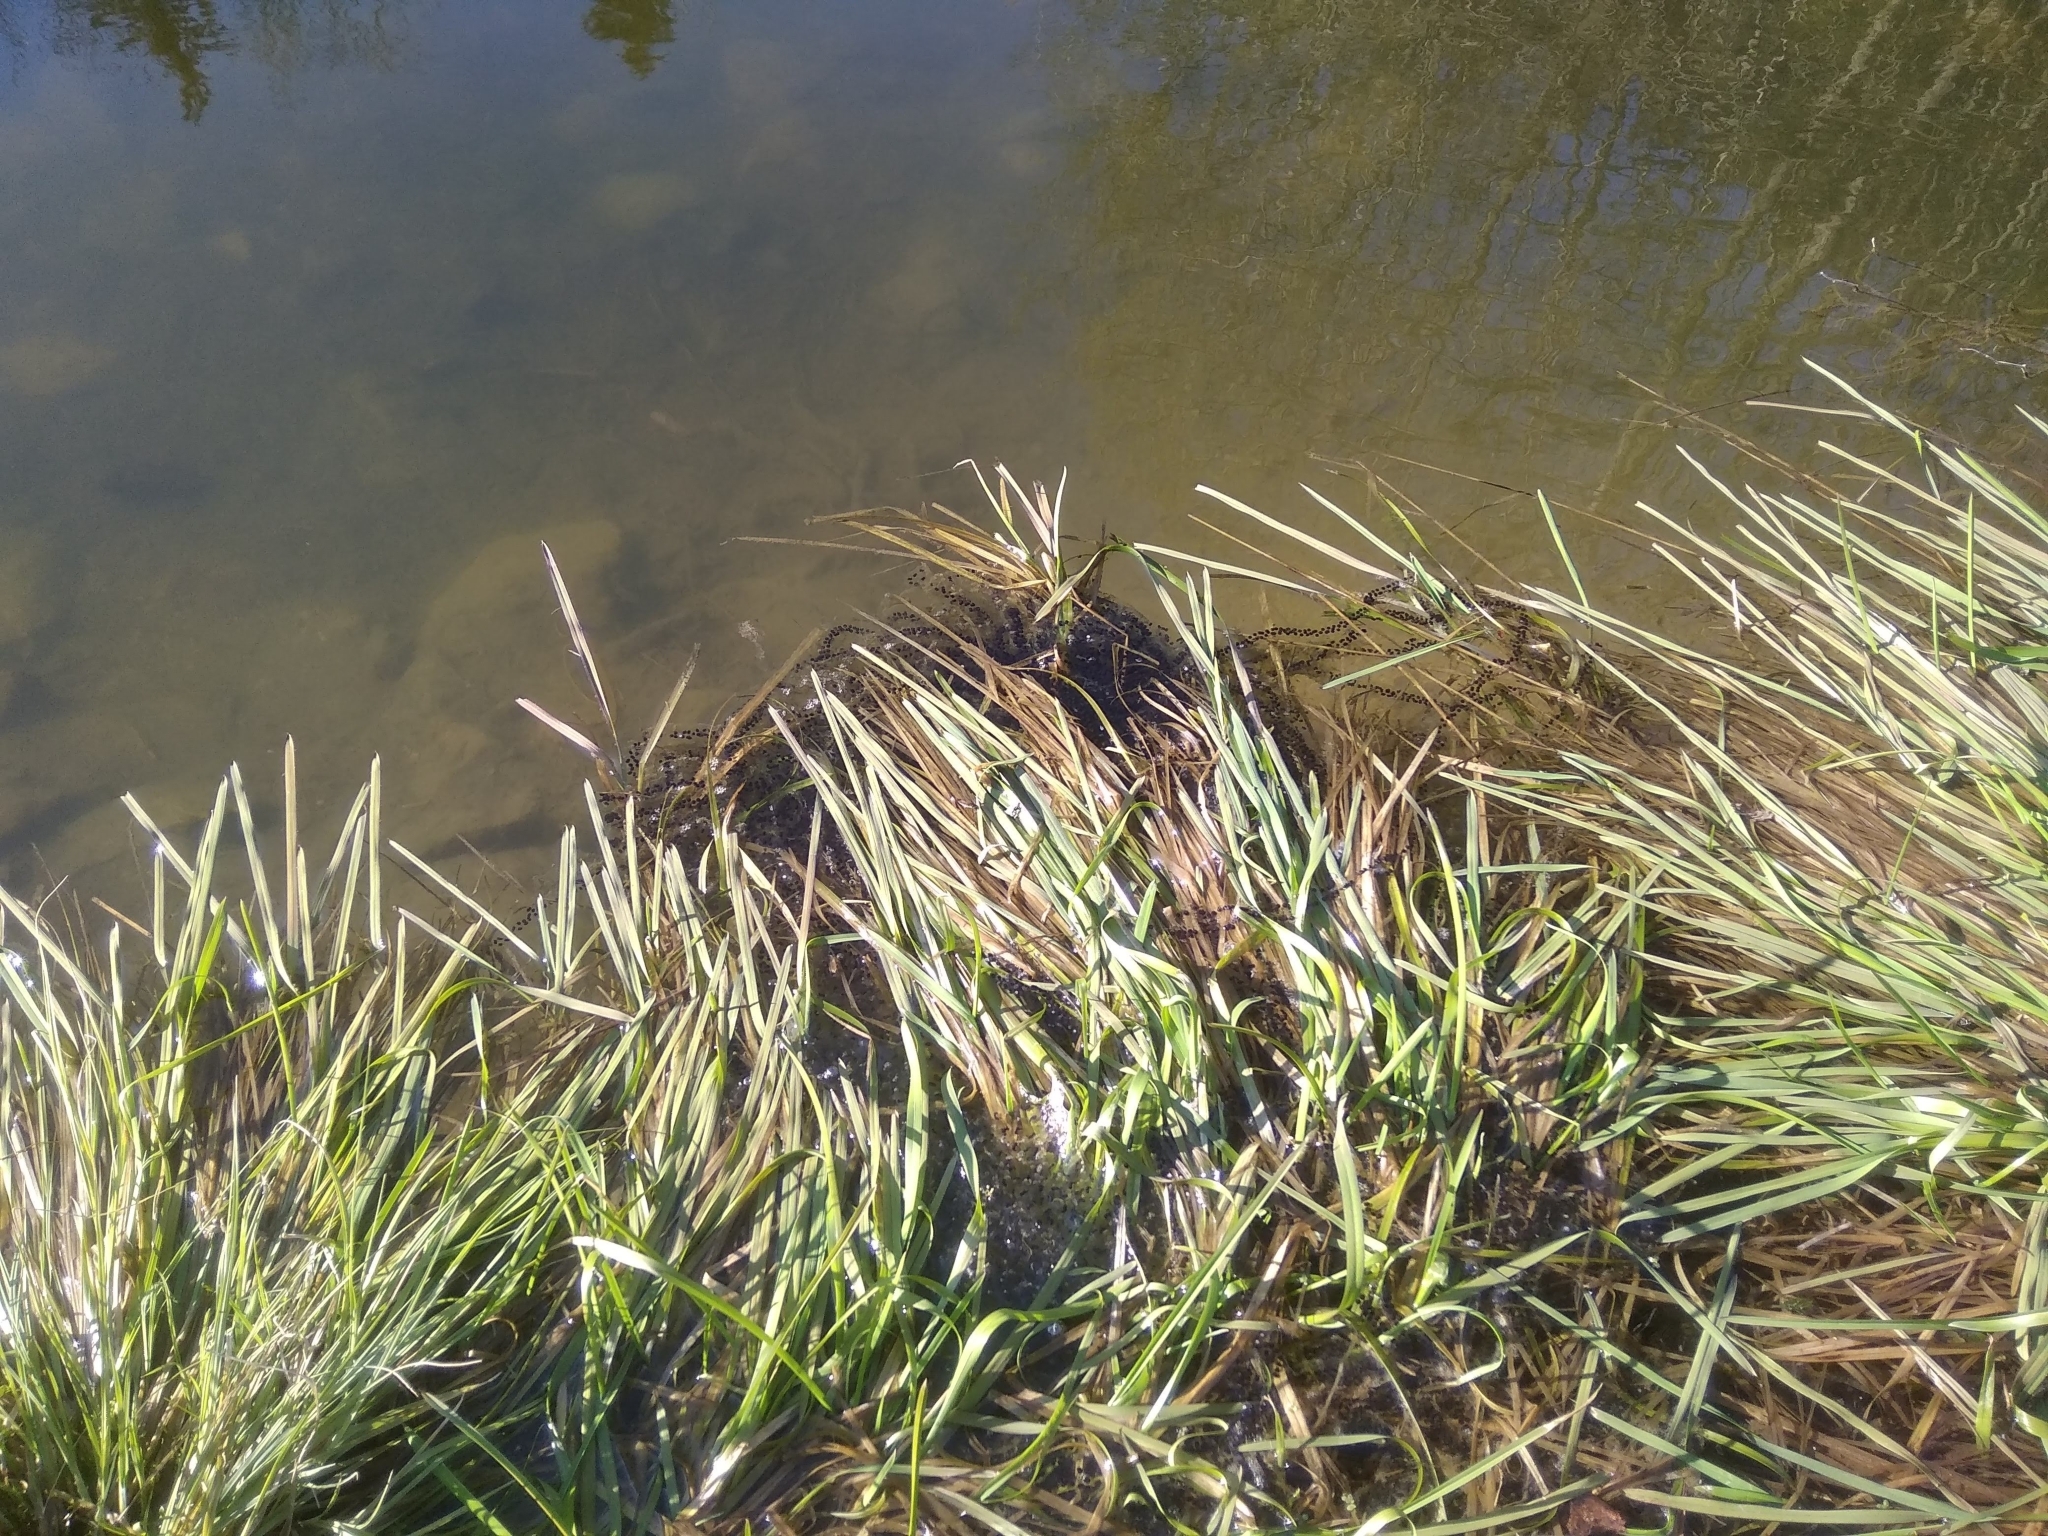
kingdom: Animalia
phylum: Chordata
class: Amphibia
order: Anura
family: Bufonidae
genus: Bufo
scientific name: Bufo bufo
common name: Common toad
